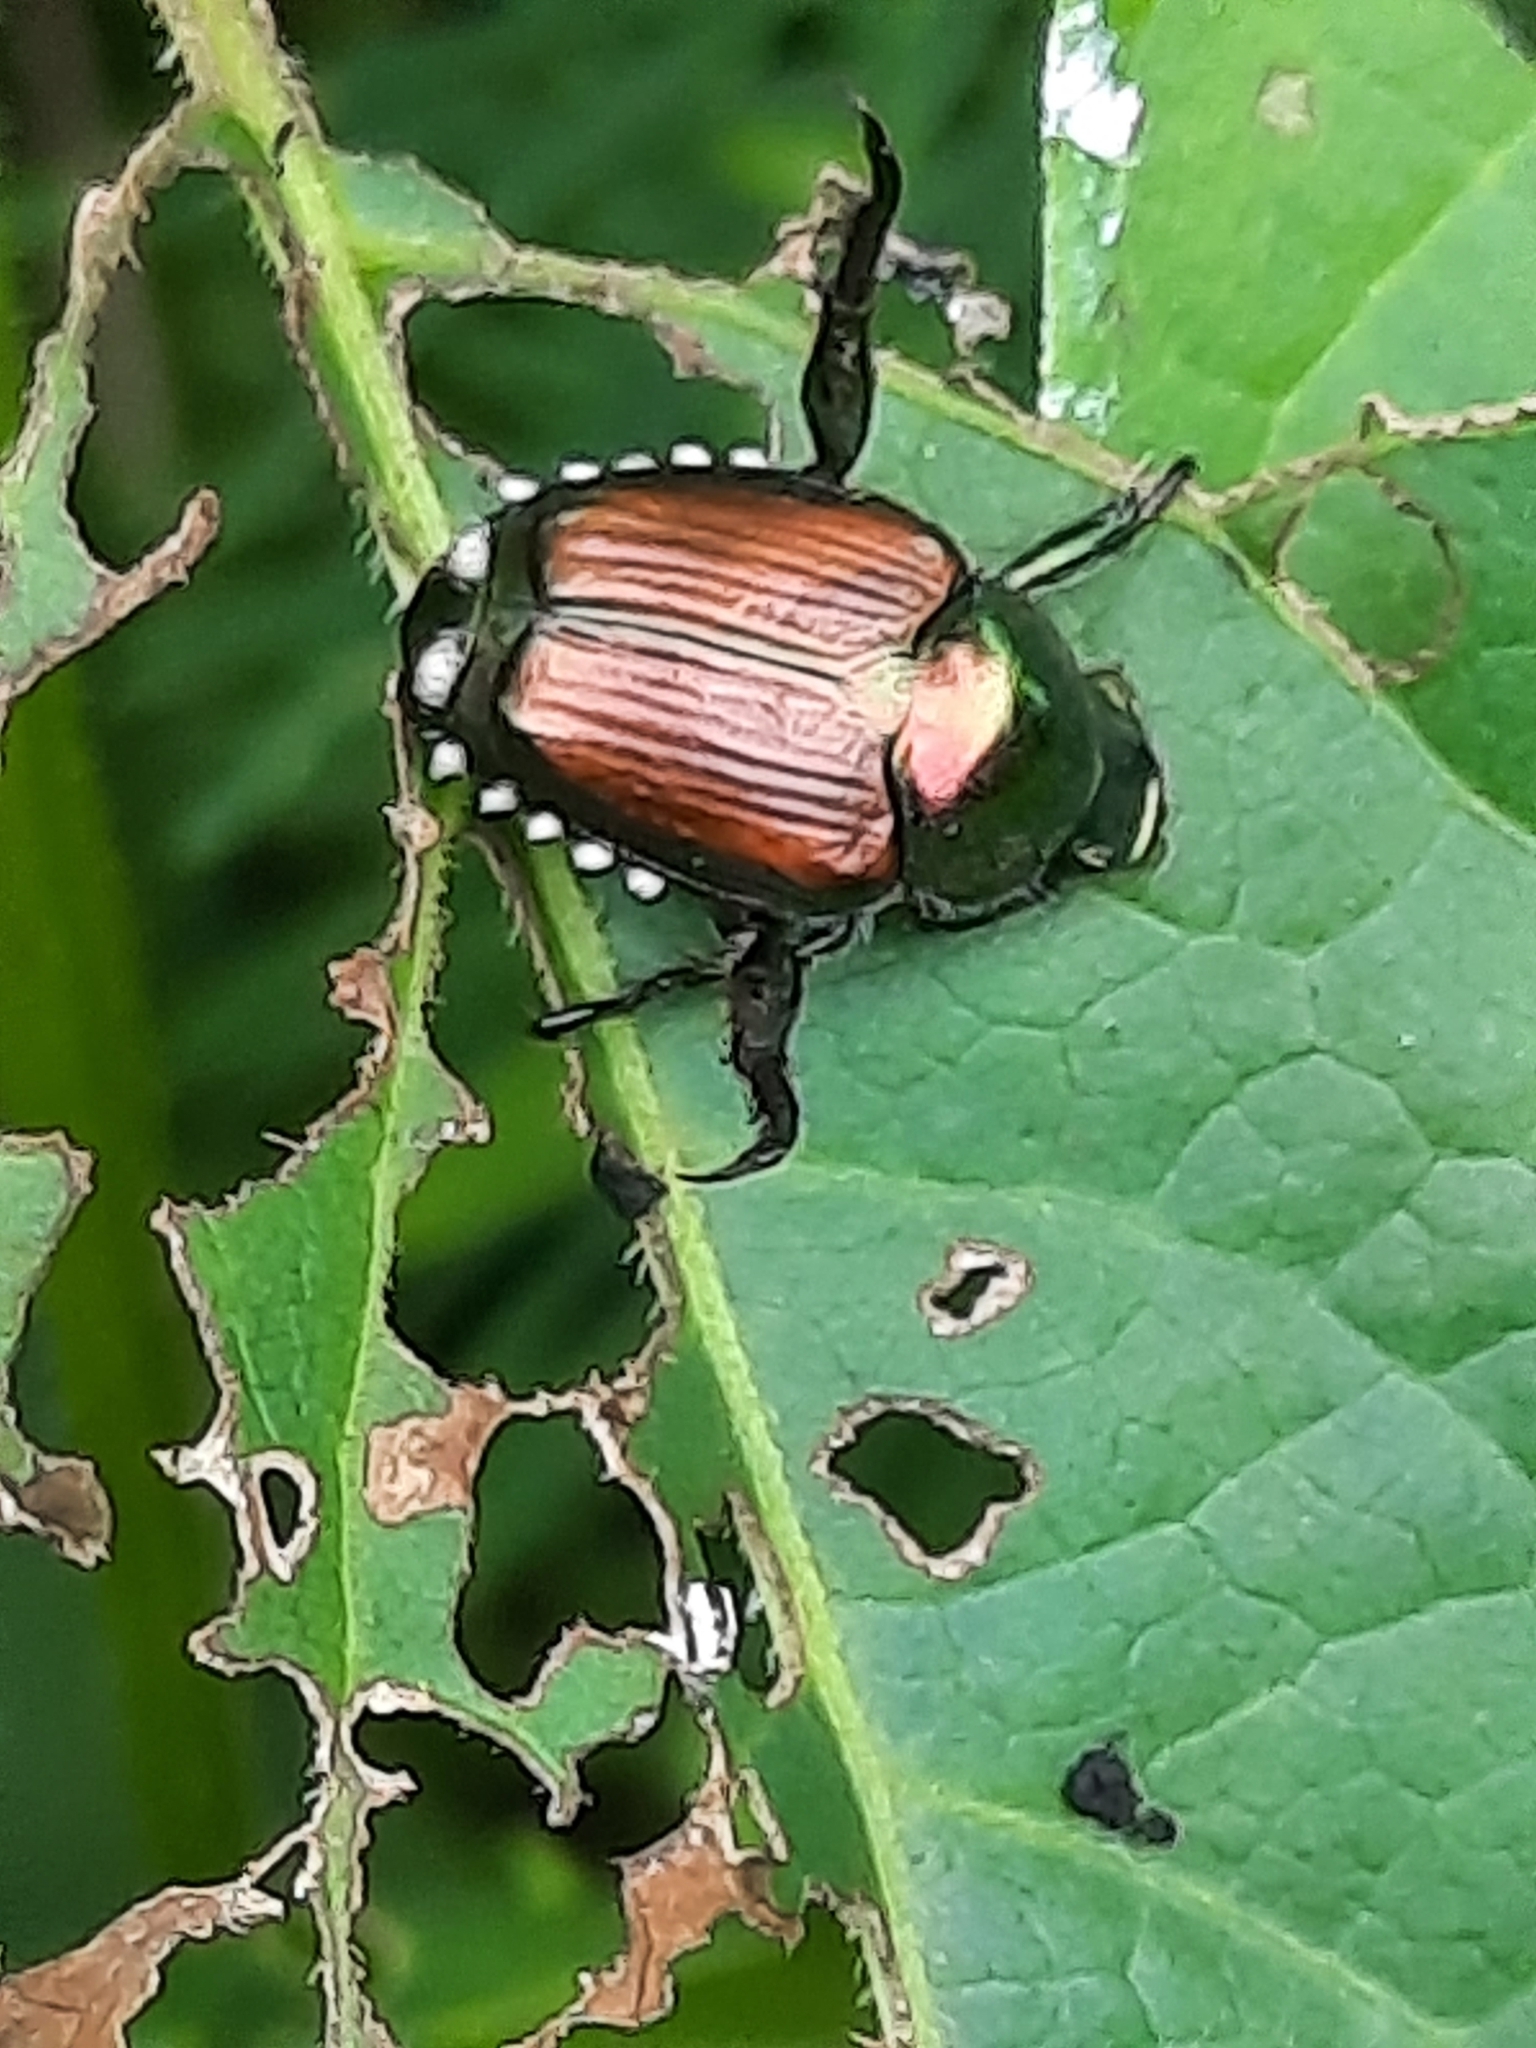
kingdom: Animalia
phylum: Arthropoda
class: Insecta
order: Coleoptera
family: Scarabaeidae
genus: Popillia
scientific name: Popillia japonica
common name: Japanese beetle
